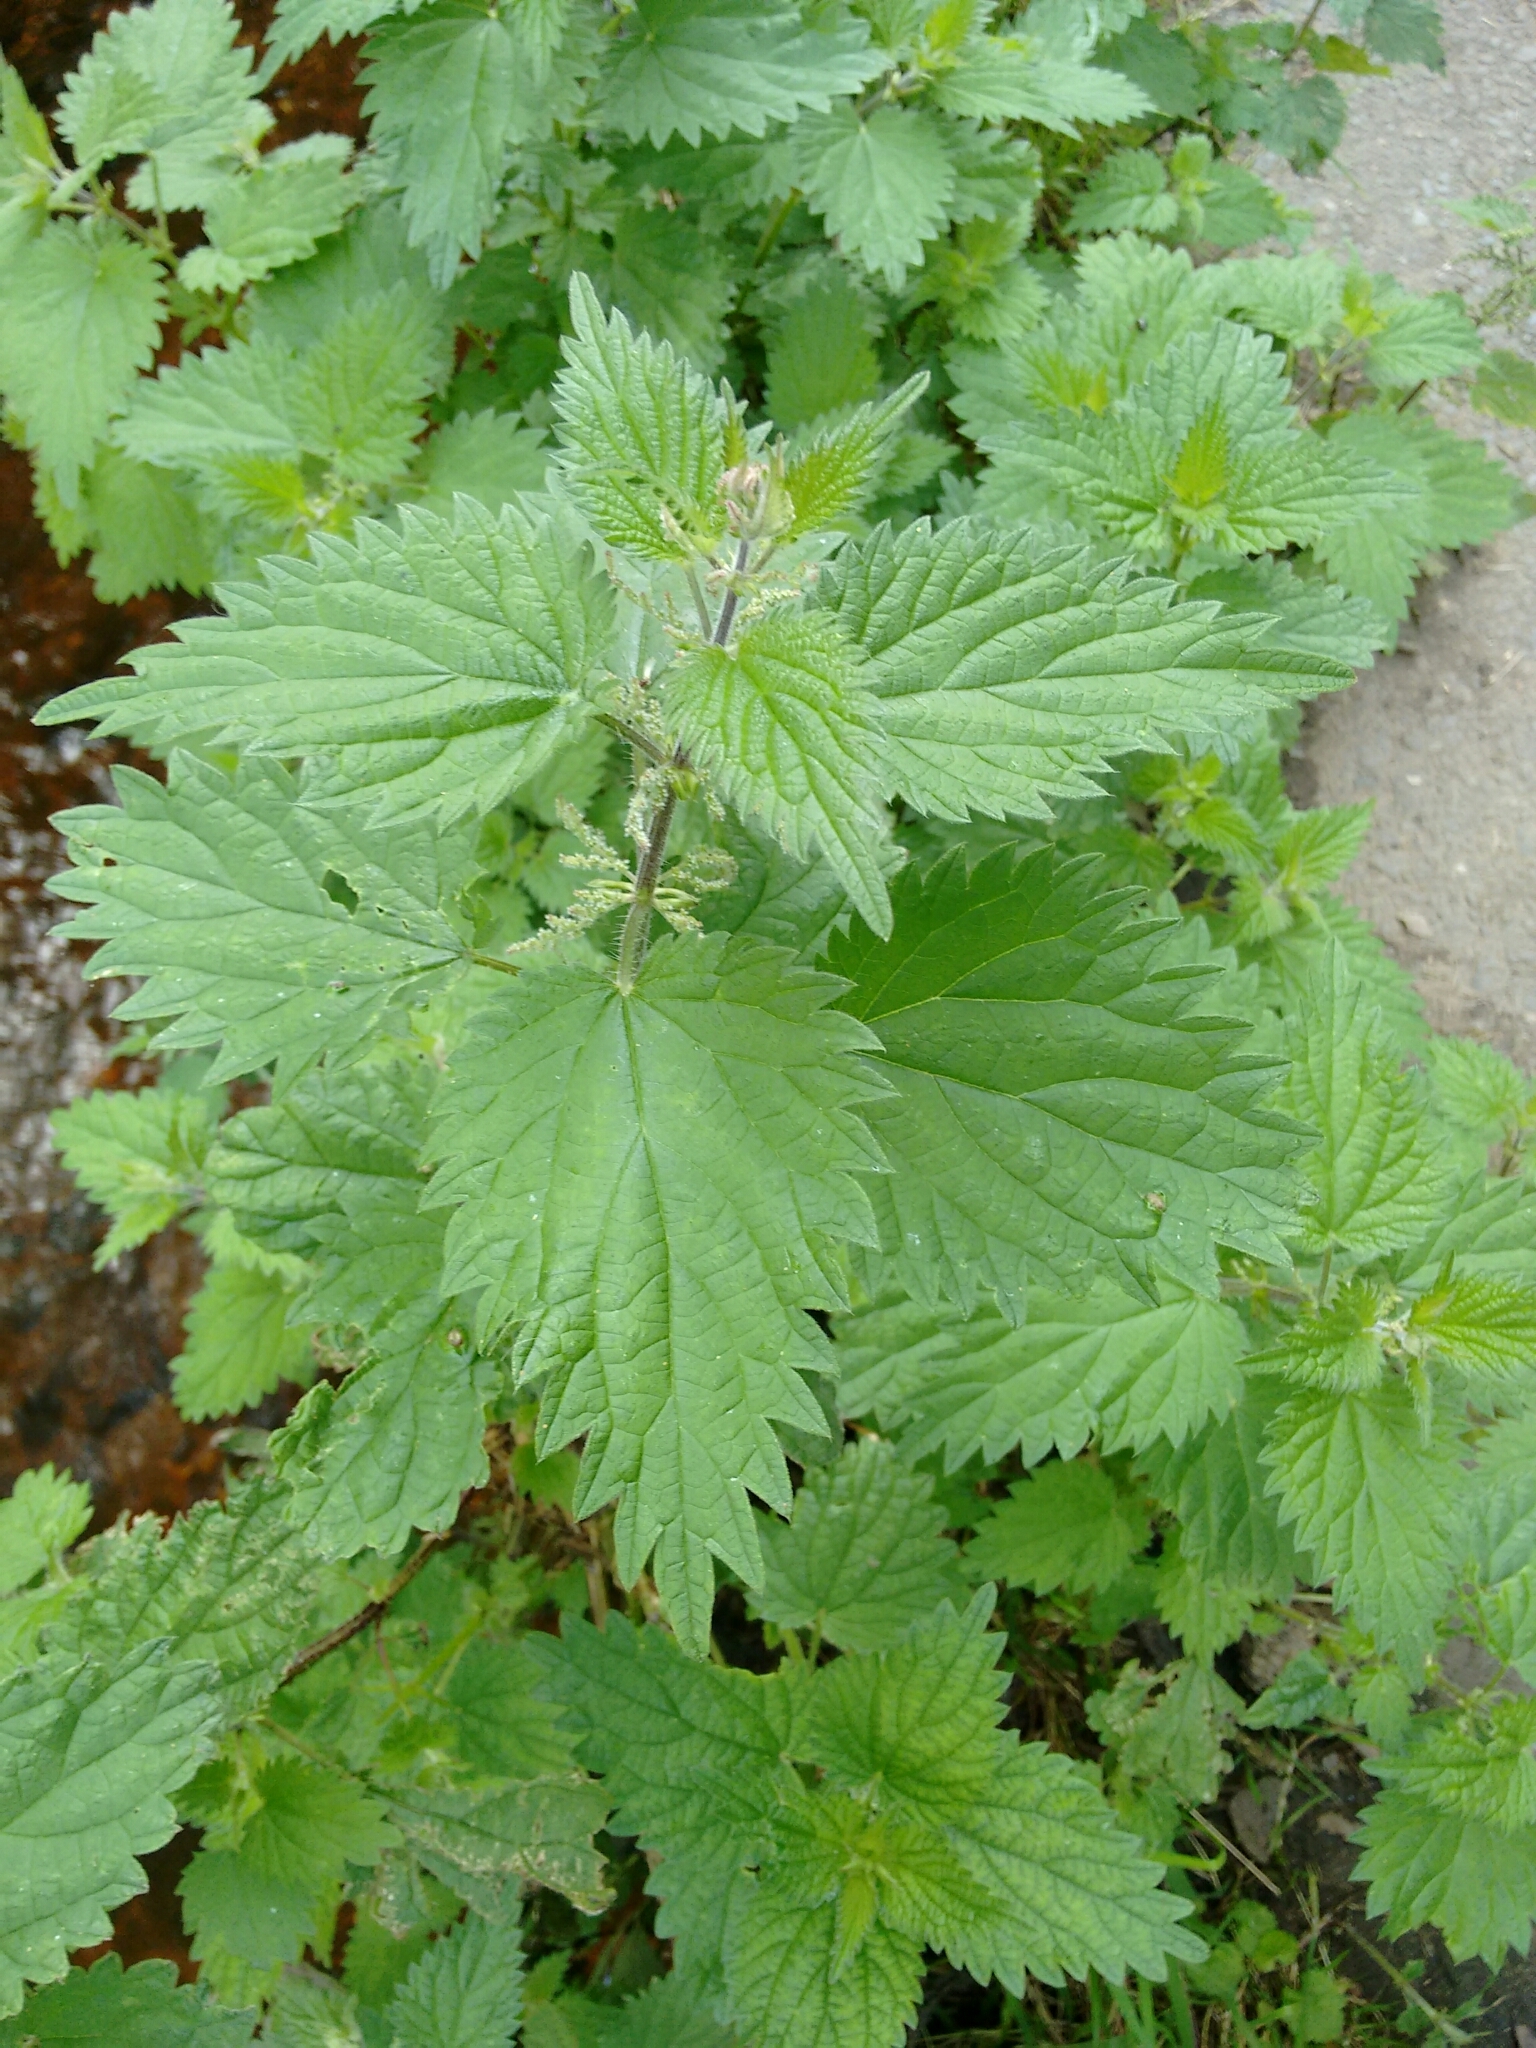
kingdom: Plantae
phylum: Tracheophyta
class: Magnoliopsida
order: Rosales
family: Urticaceae
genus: Urtica
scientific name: Urtica dioica
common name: Common nettle
